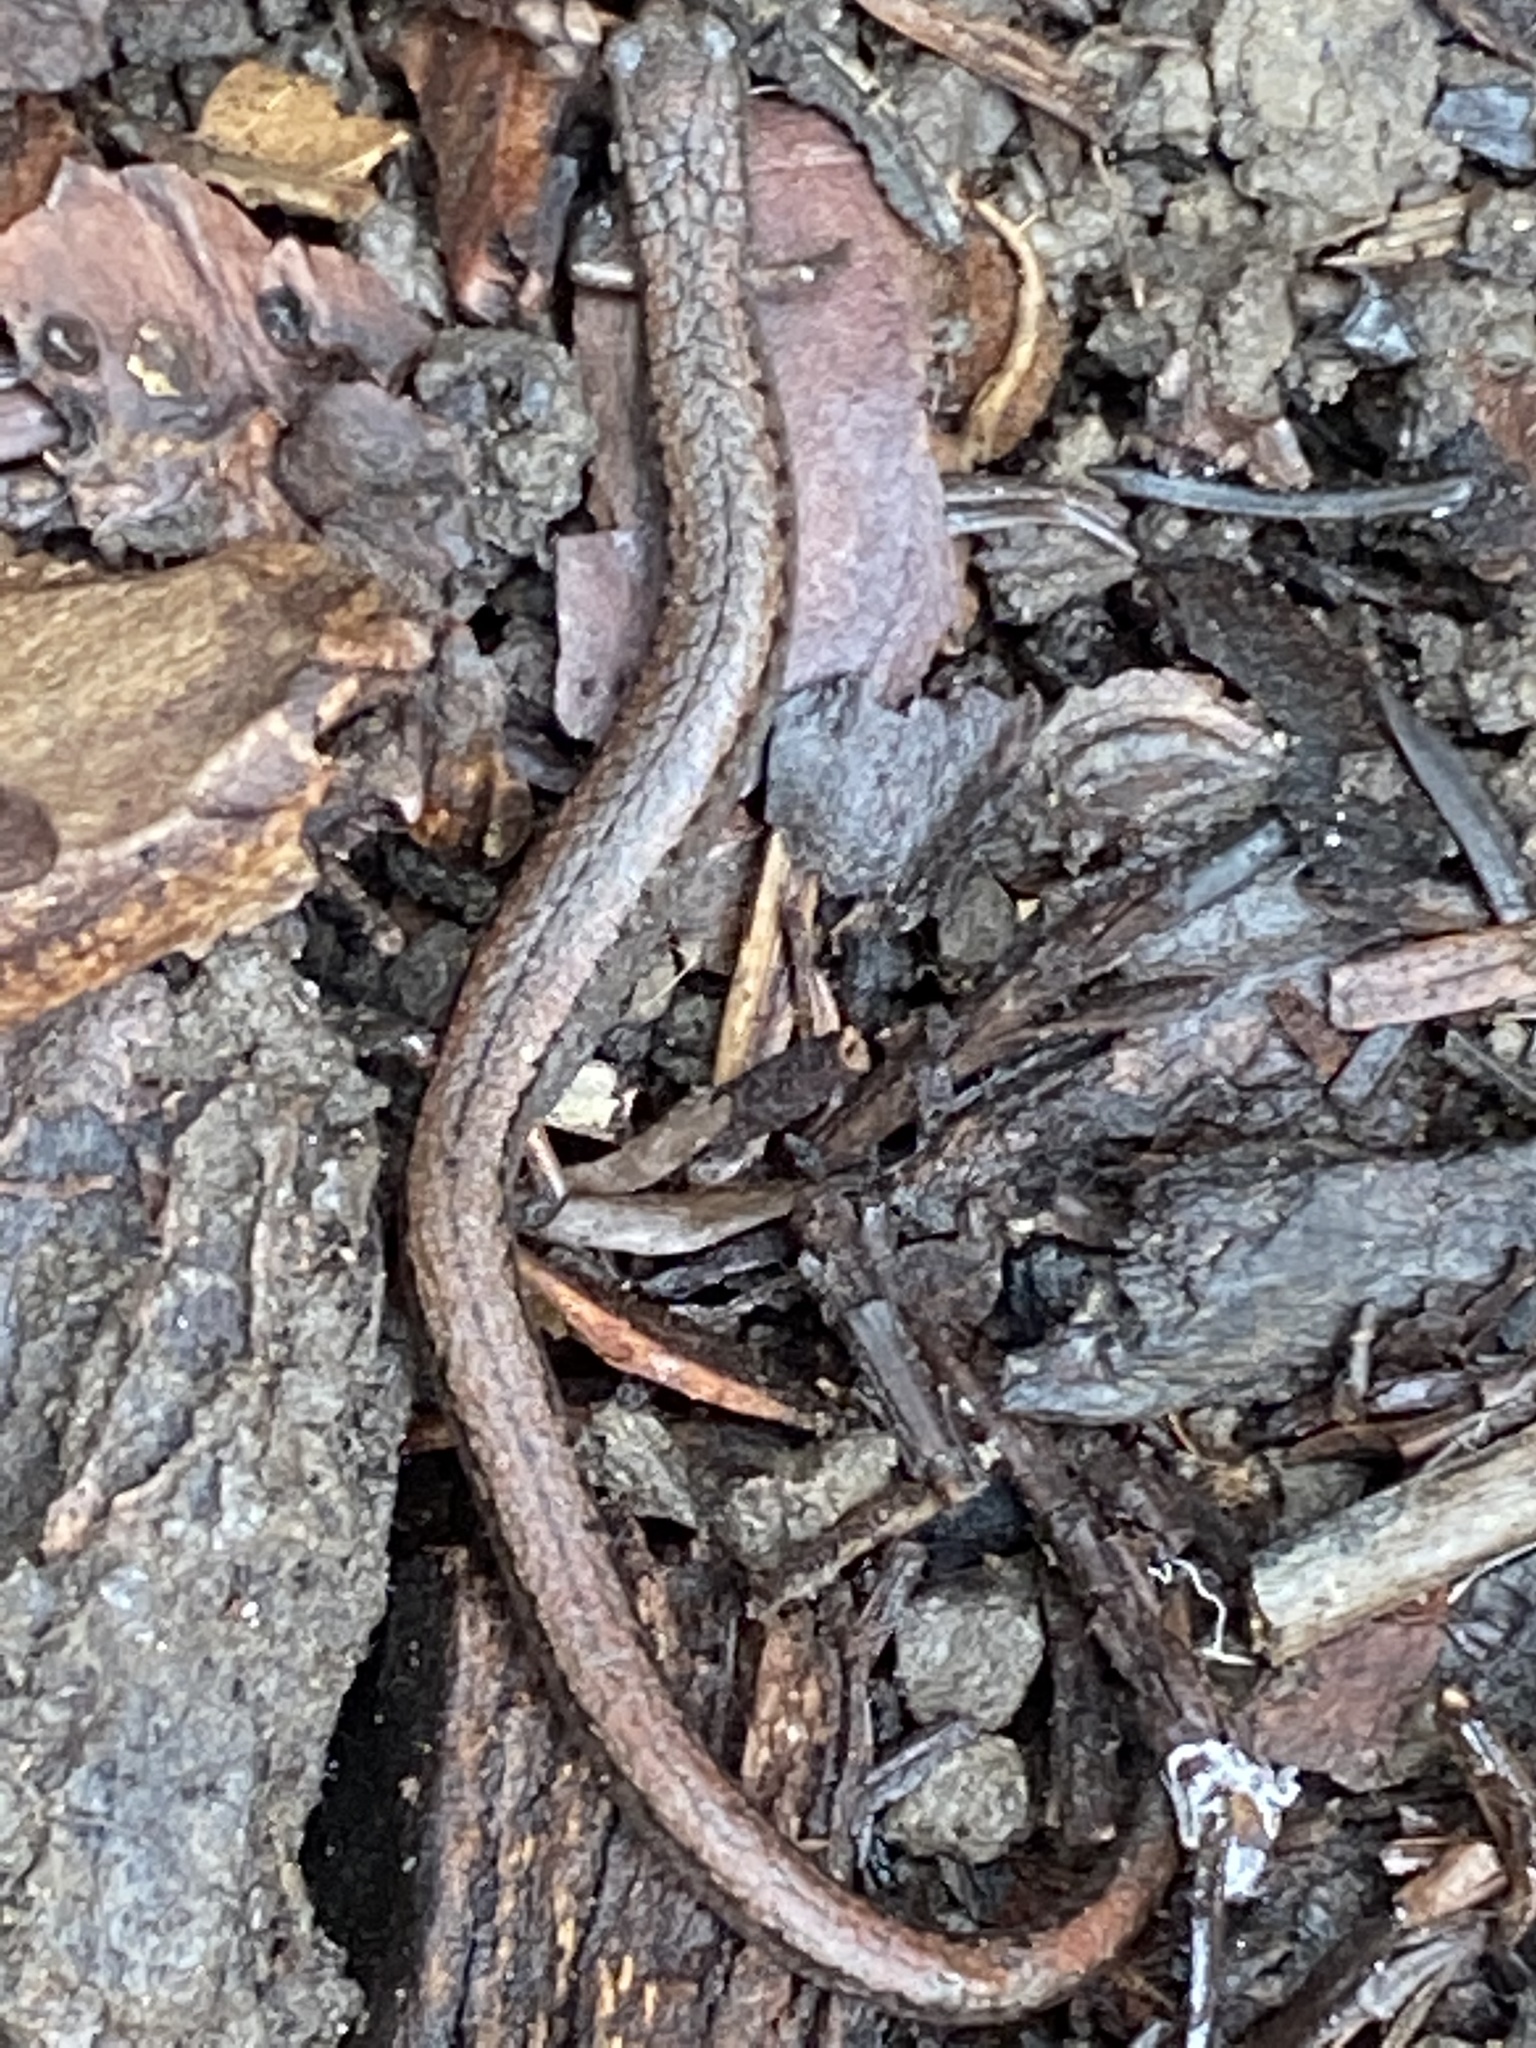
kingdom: Animalia
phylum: Chordata
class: Amphibia
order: Caudata
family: Plethodontidae
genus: Batrachoseps
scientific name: Batrachoseps attenuatus
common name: California slender salamander
